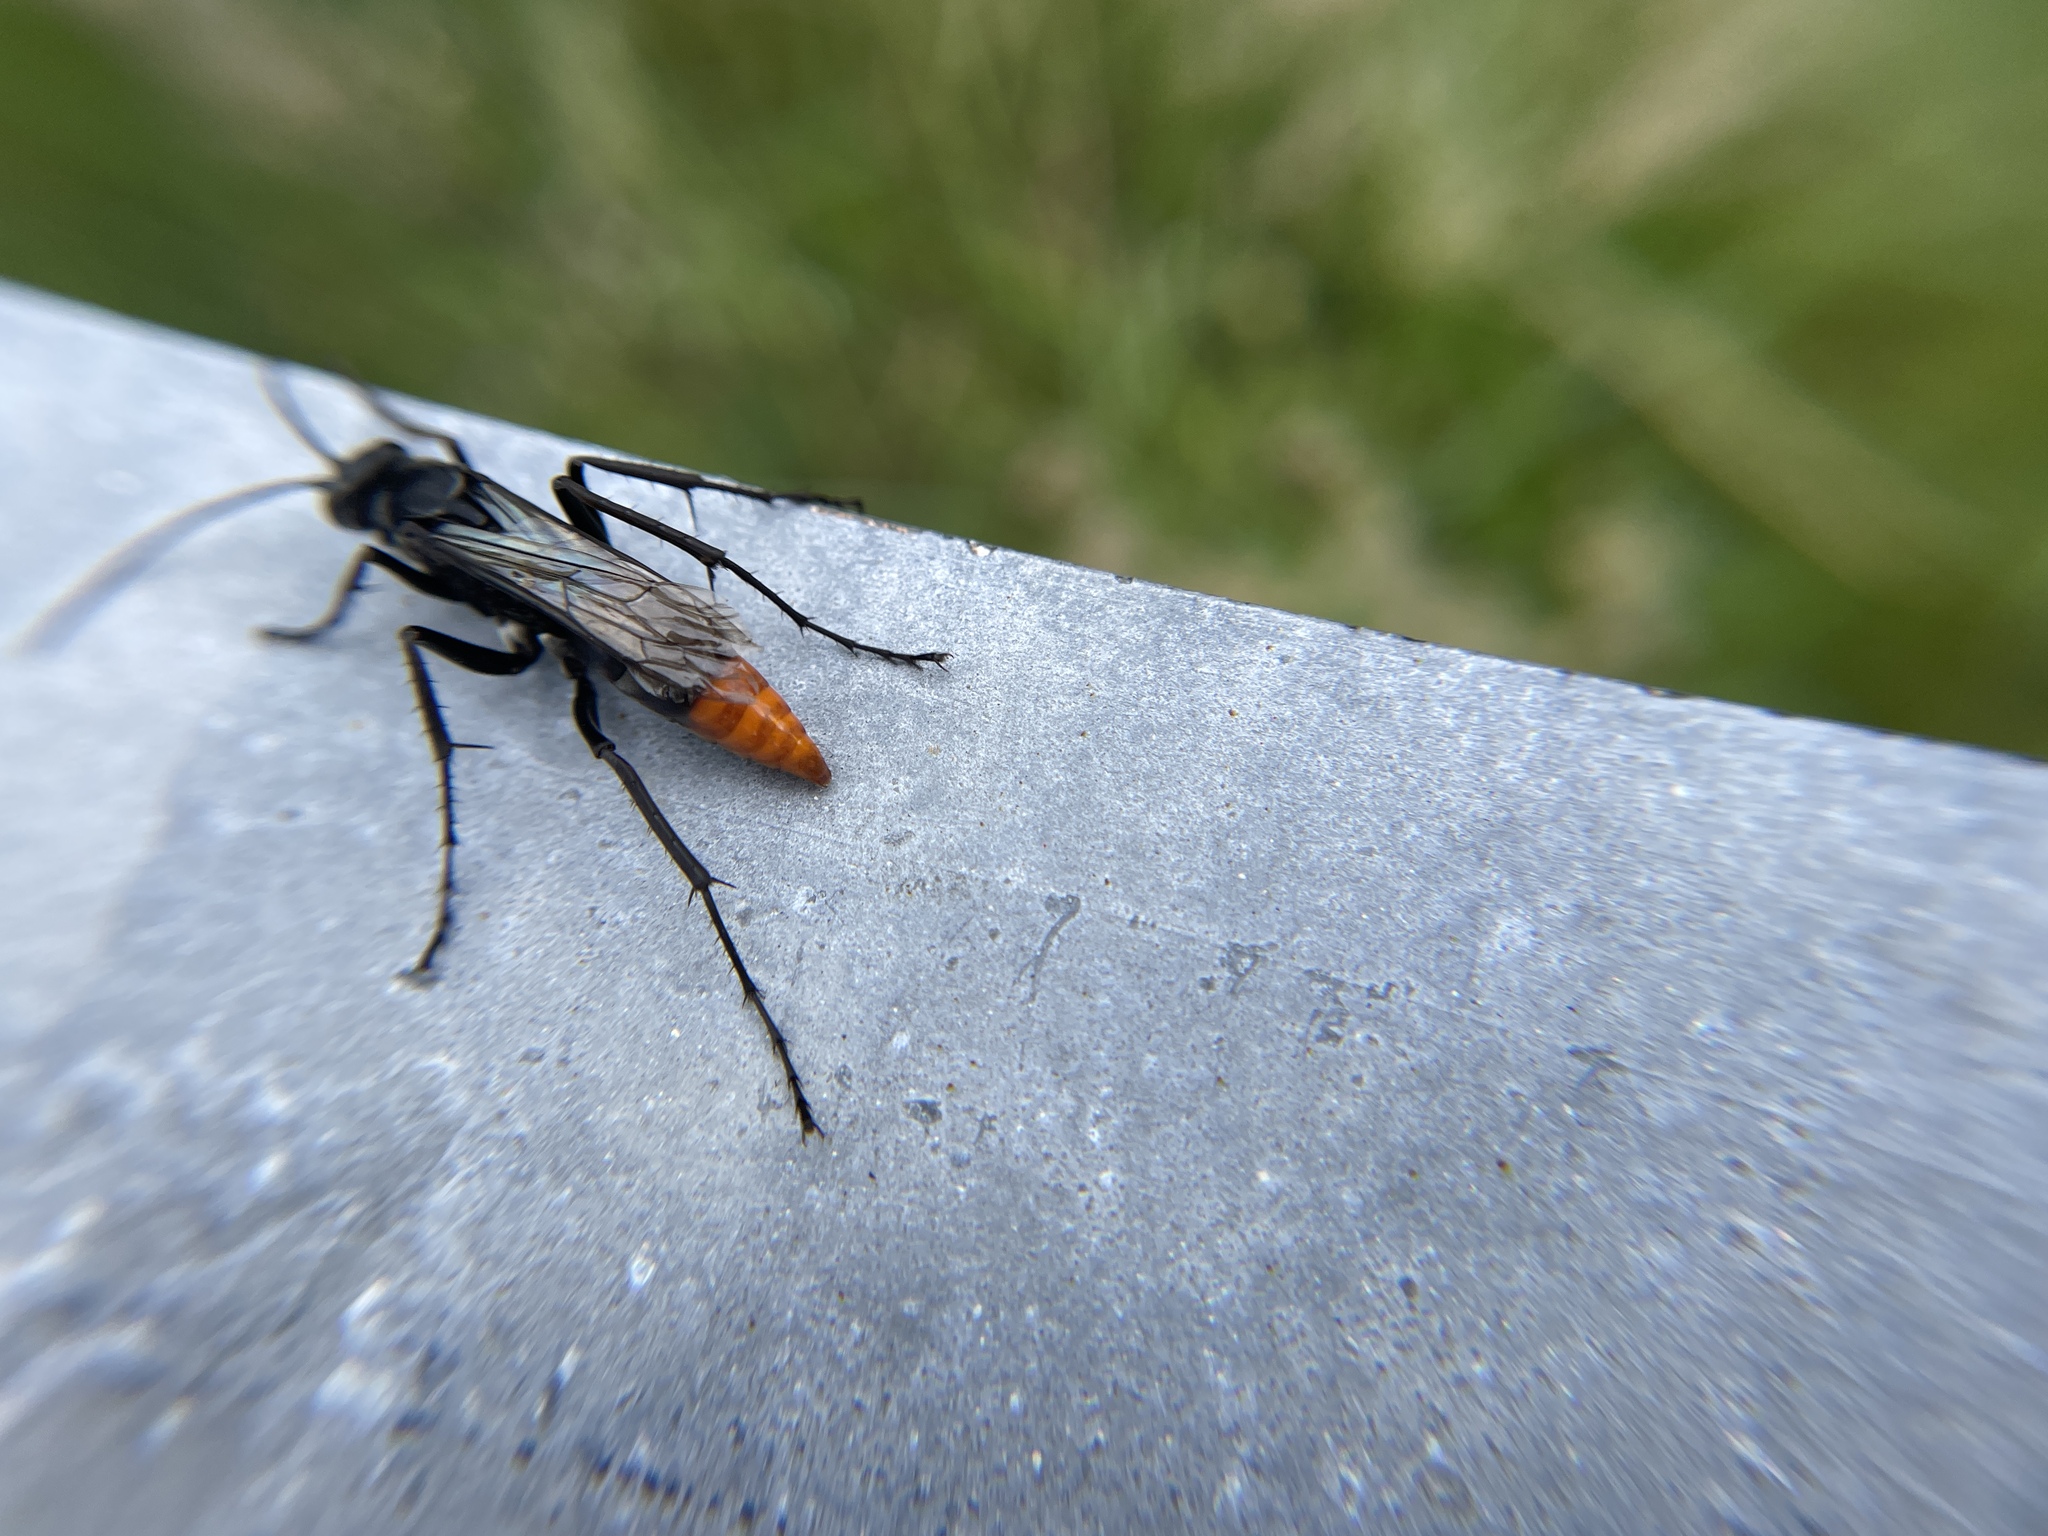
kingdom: Animalia
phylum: Arthropoda
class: Insecta
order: Hymenoptera
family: Pompilidae
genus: Tachypompilus
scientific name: Tachypompilus analis
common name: Spider wasp
